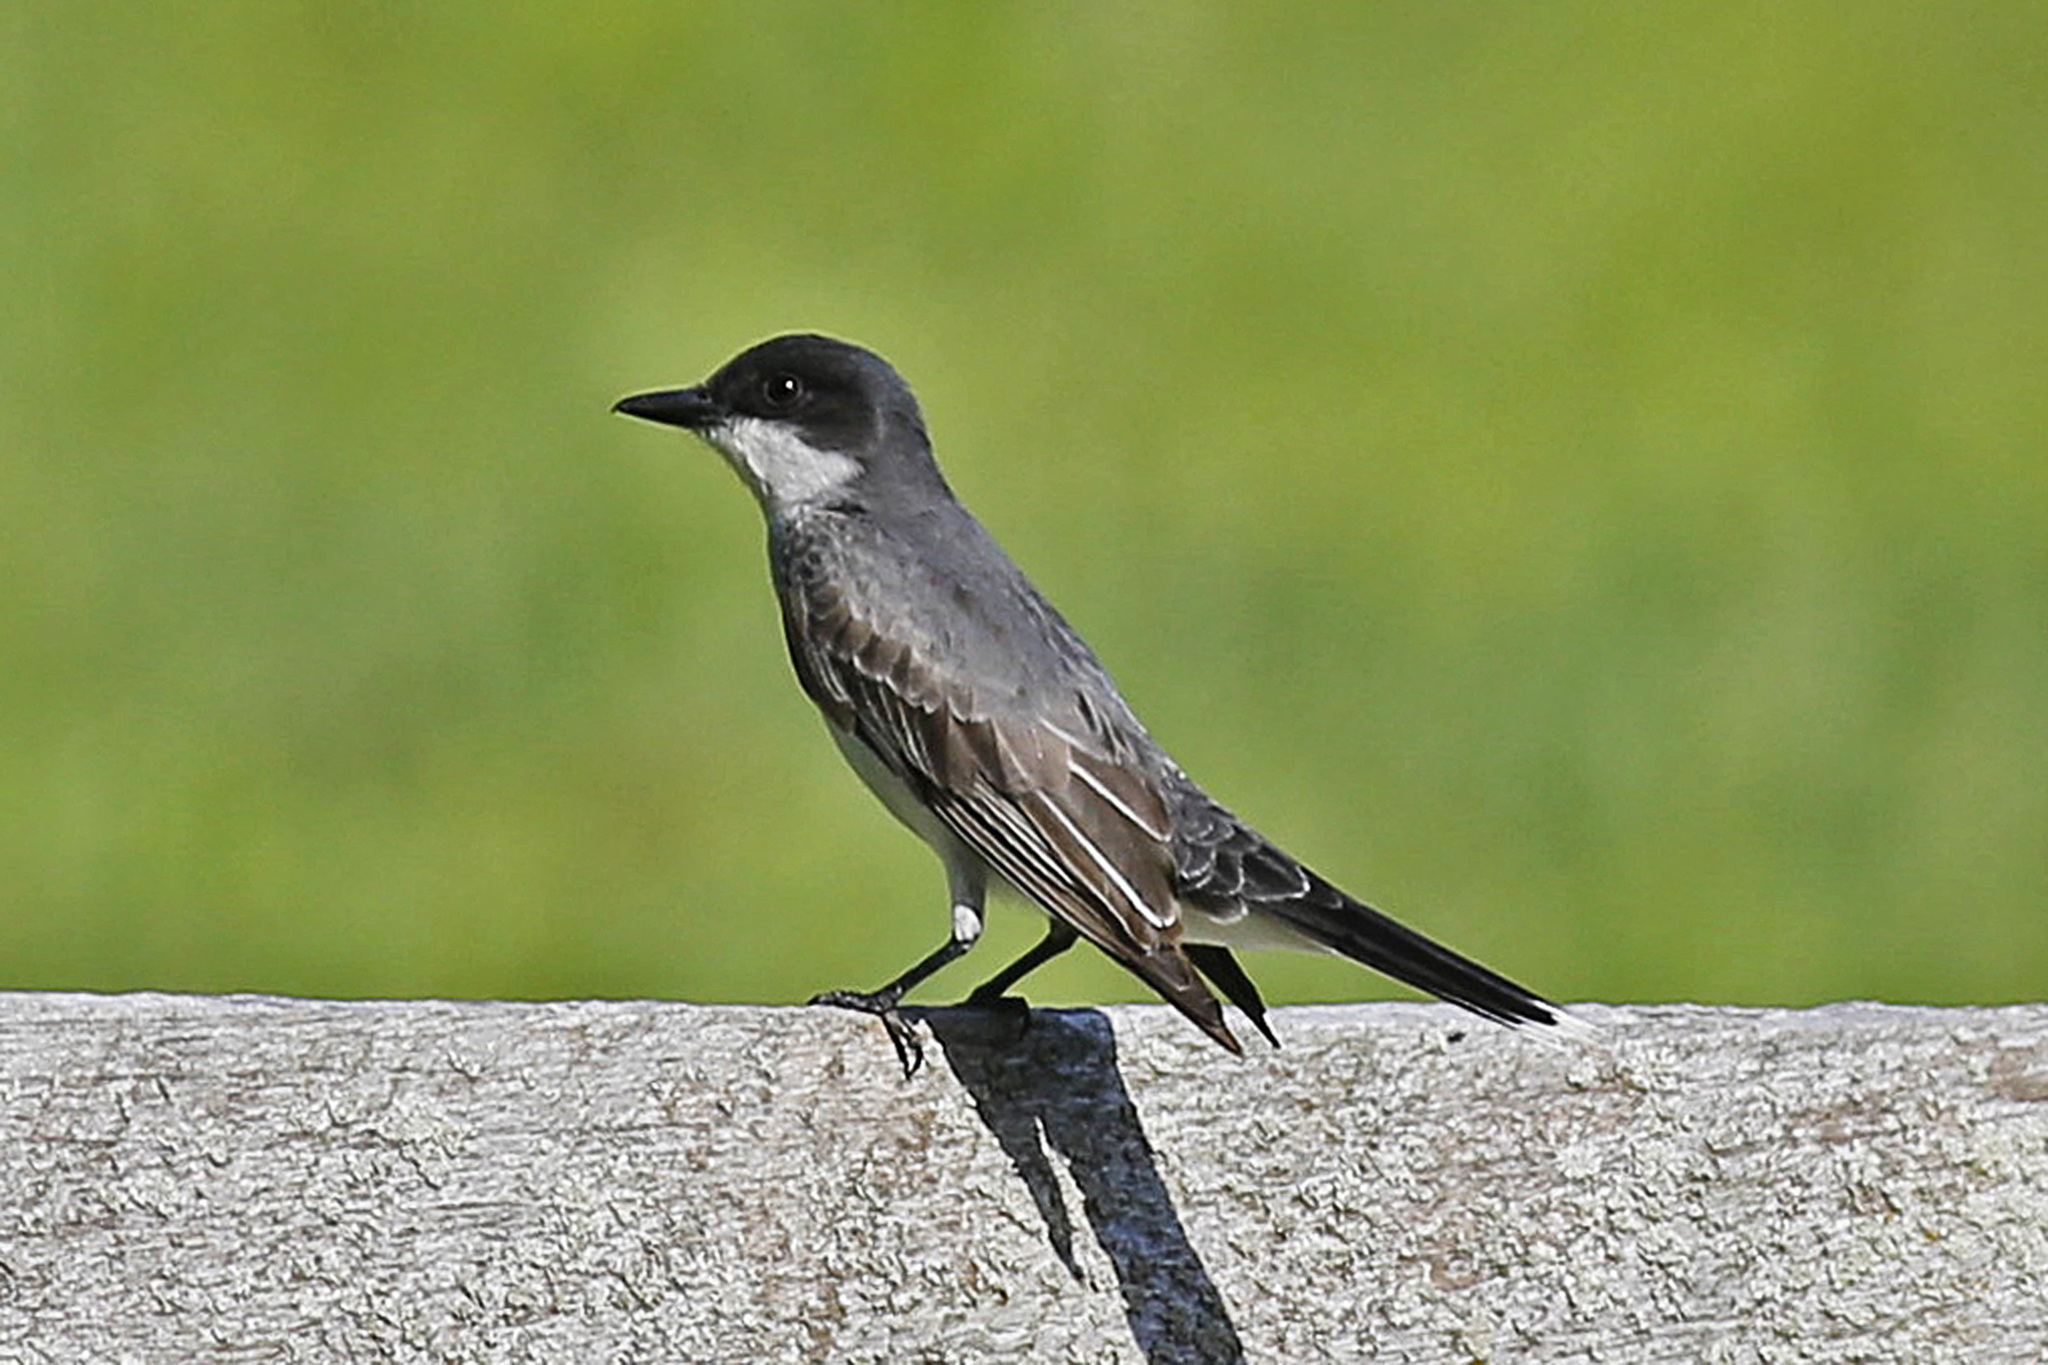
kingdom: Animalia
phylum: Chordata
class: Aves
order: Passeriformes
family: Tyrannidae
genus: Tyrannus
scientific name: Tyrannus tyrannus
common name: Eastern kingbird
